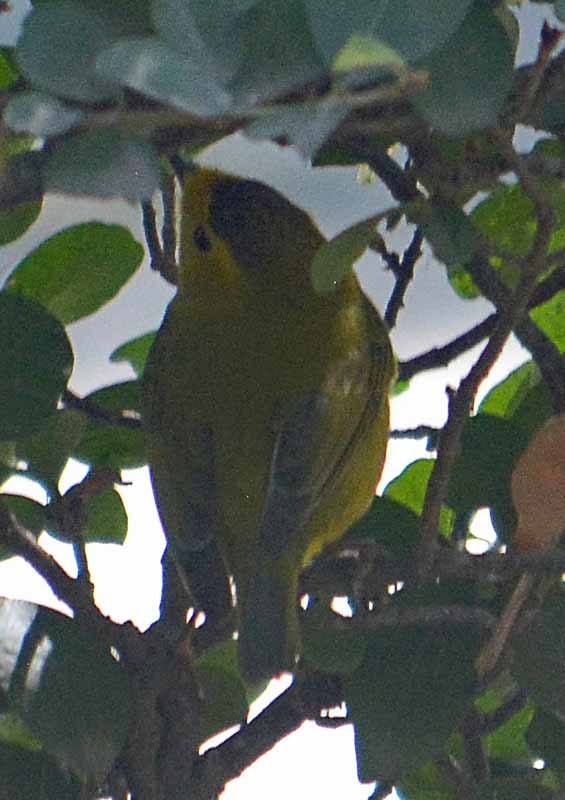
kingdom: Animalia
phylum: Chordata
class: Aves
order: Passeriformes
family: Parulidae
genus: Cardellina
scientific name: Cardellina pusilla
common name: Wilson's warbler
